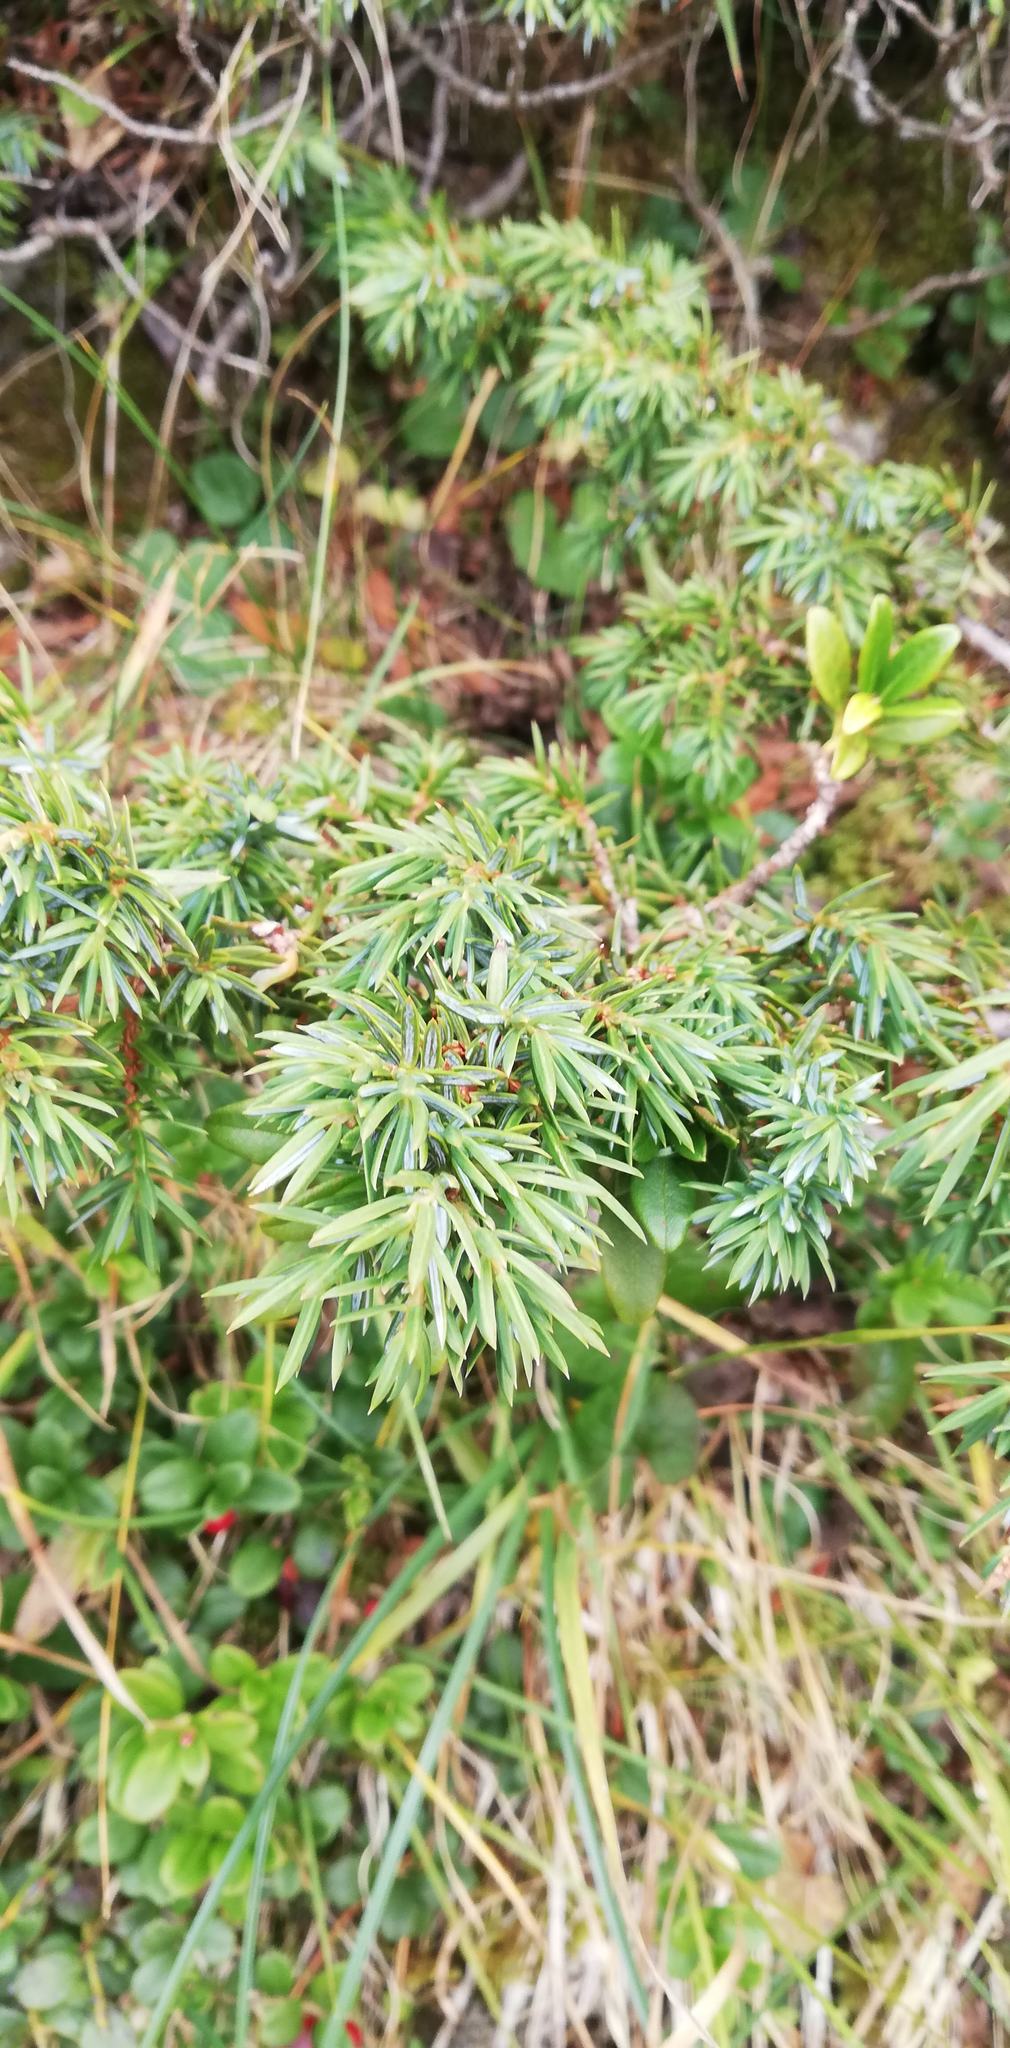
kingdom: Plantae
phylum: Tracheophyta
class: Pinopsida
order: Pinales
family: Cupressaceae
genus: Juniperus
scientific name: Juniperus communis
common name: Common juniper
